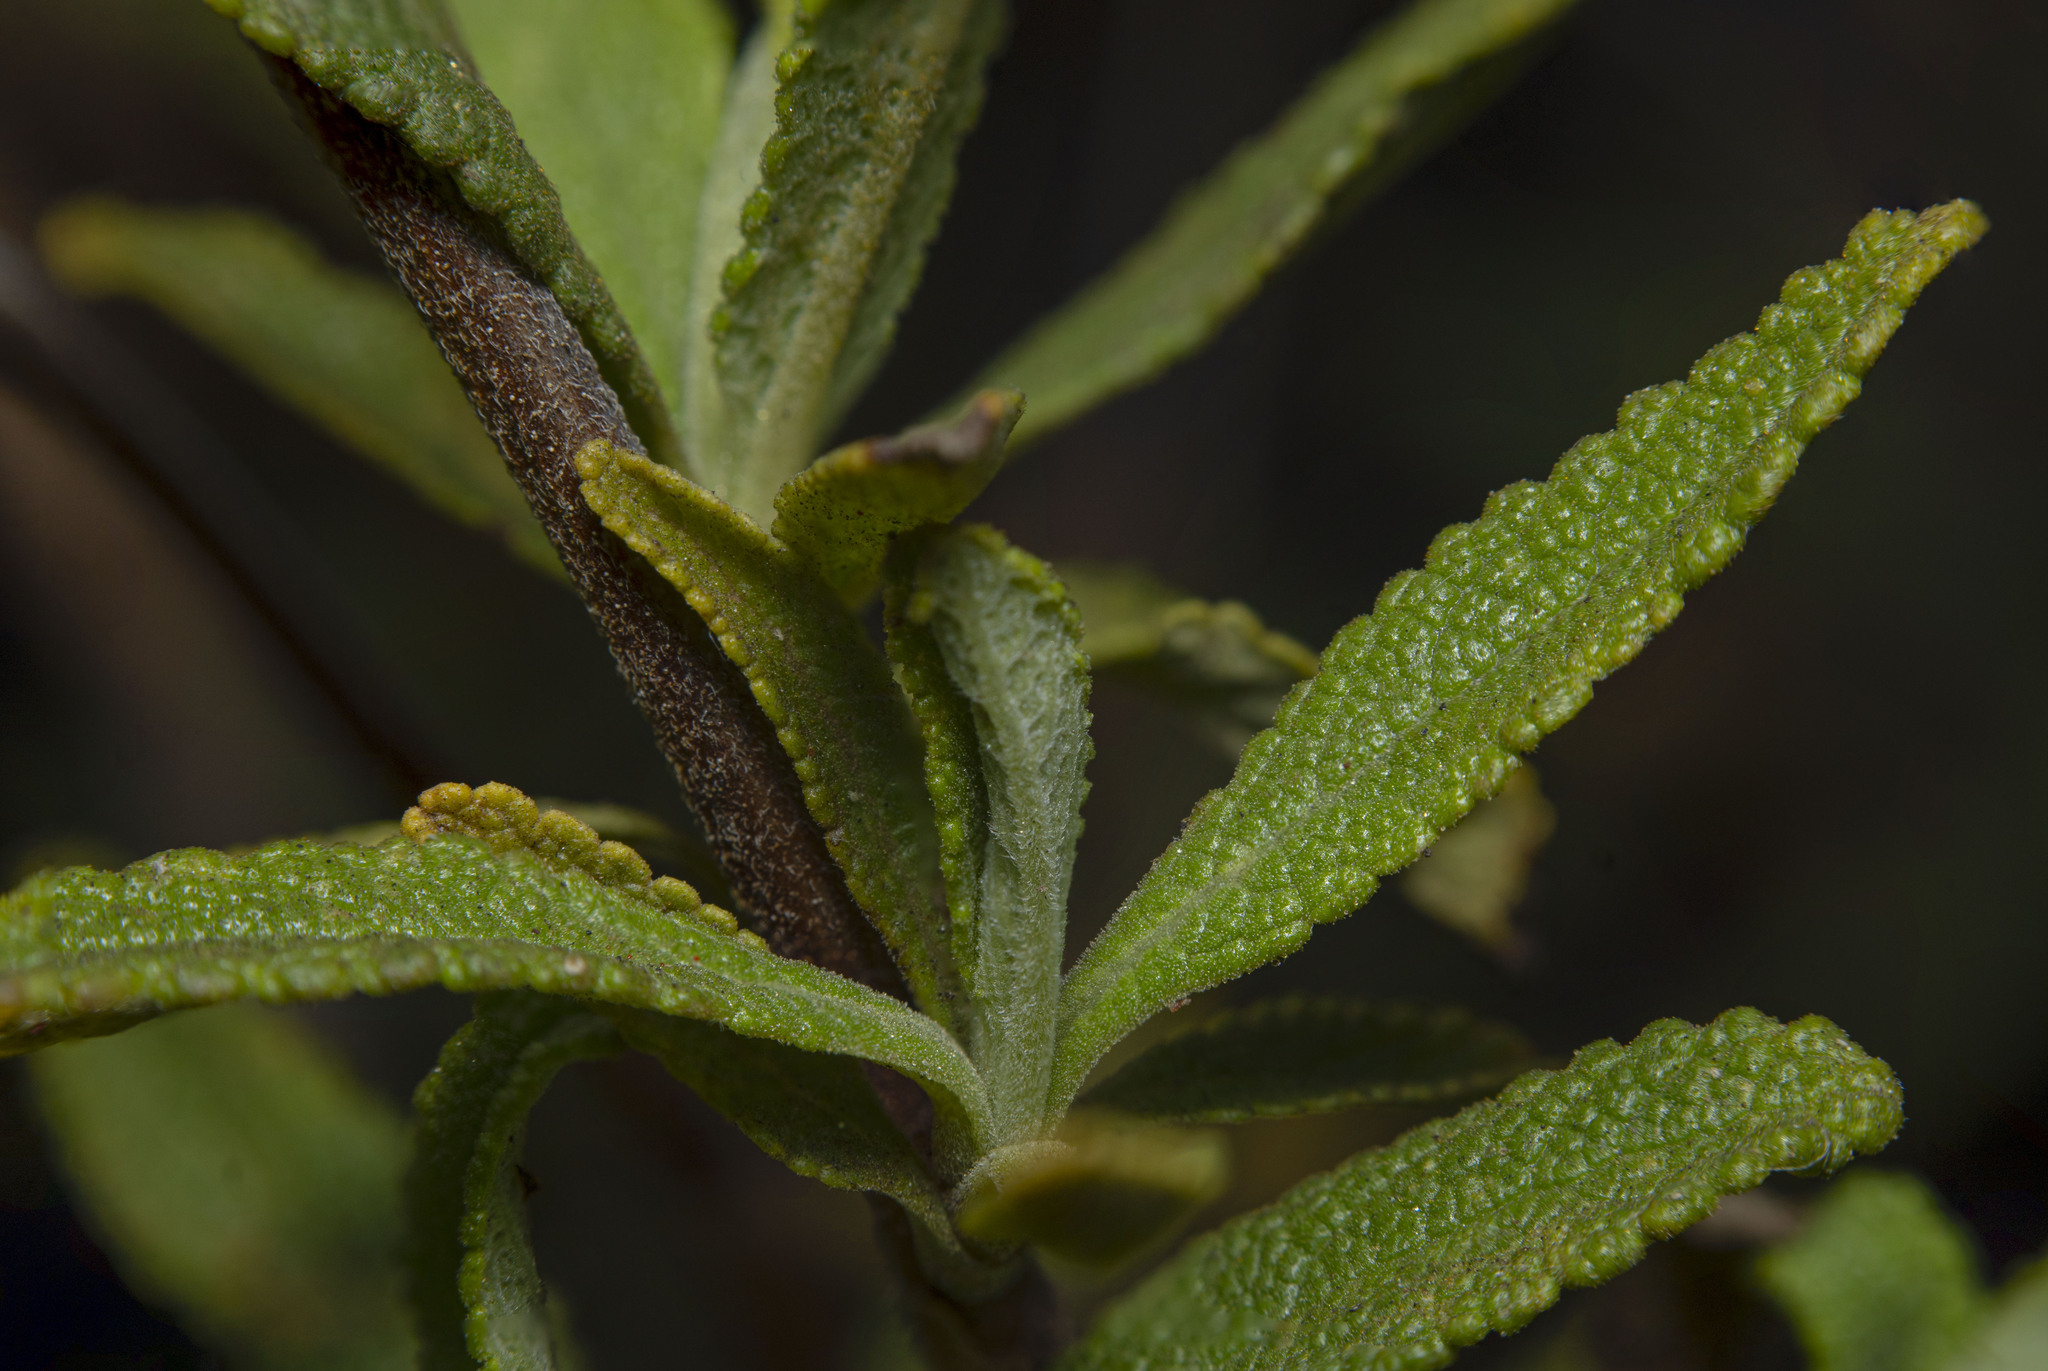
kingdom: Plantae
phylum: Tracheophyta
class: Magnoliopsida
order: Lamiales
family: Lamiaceae
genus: Salvia
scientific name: Salvia mellifera
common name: Black sage
